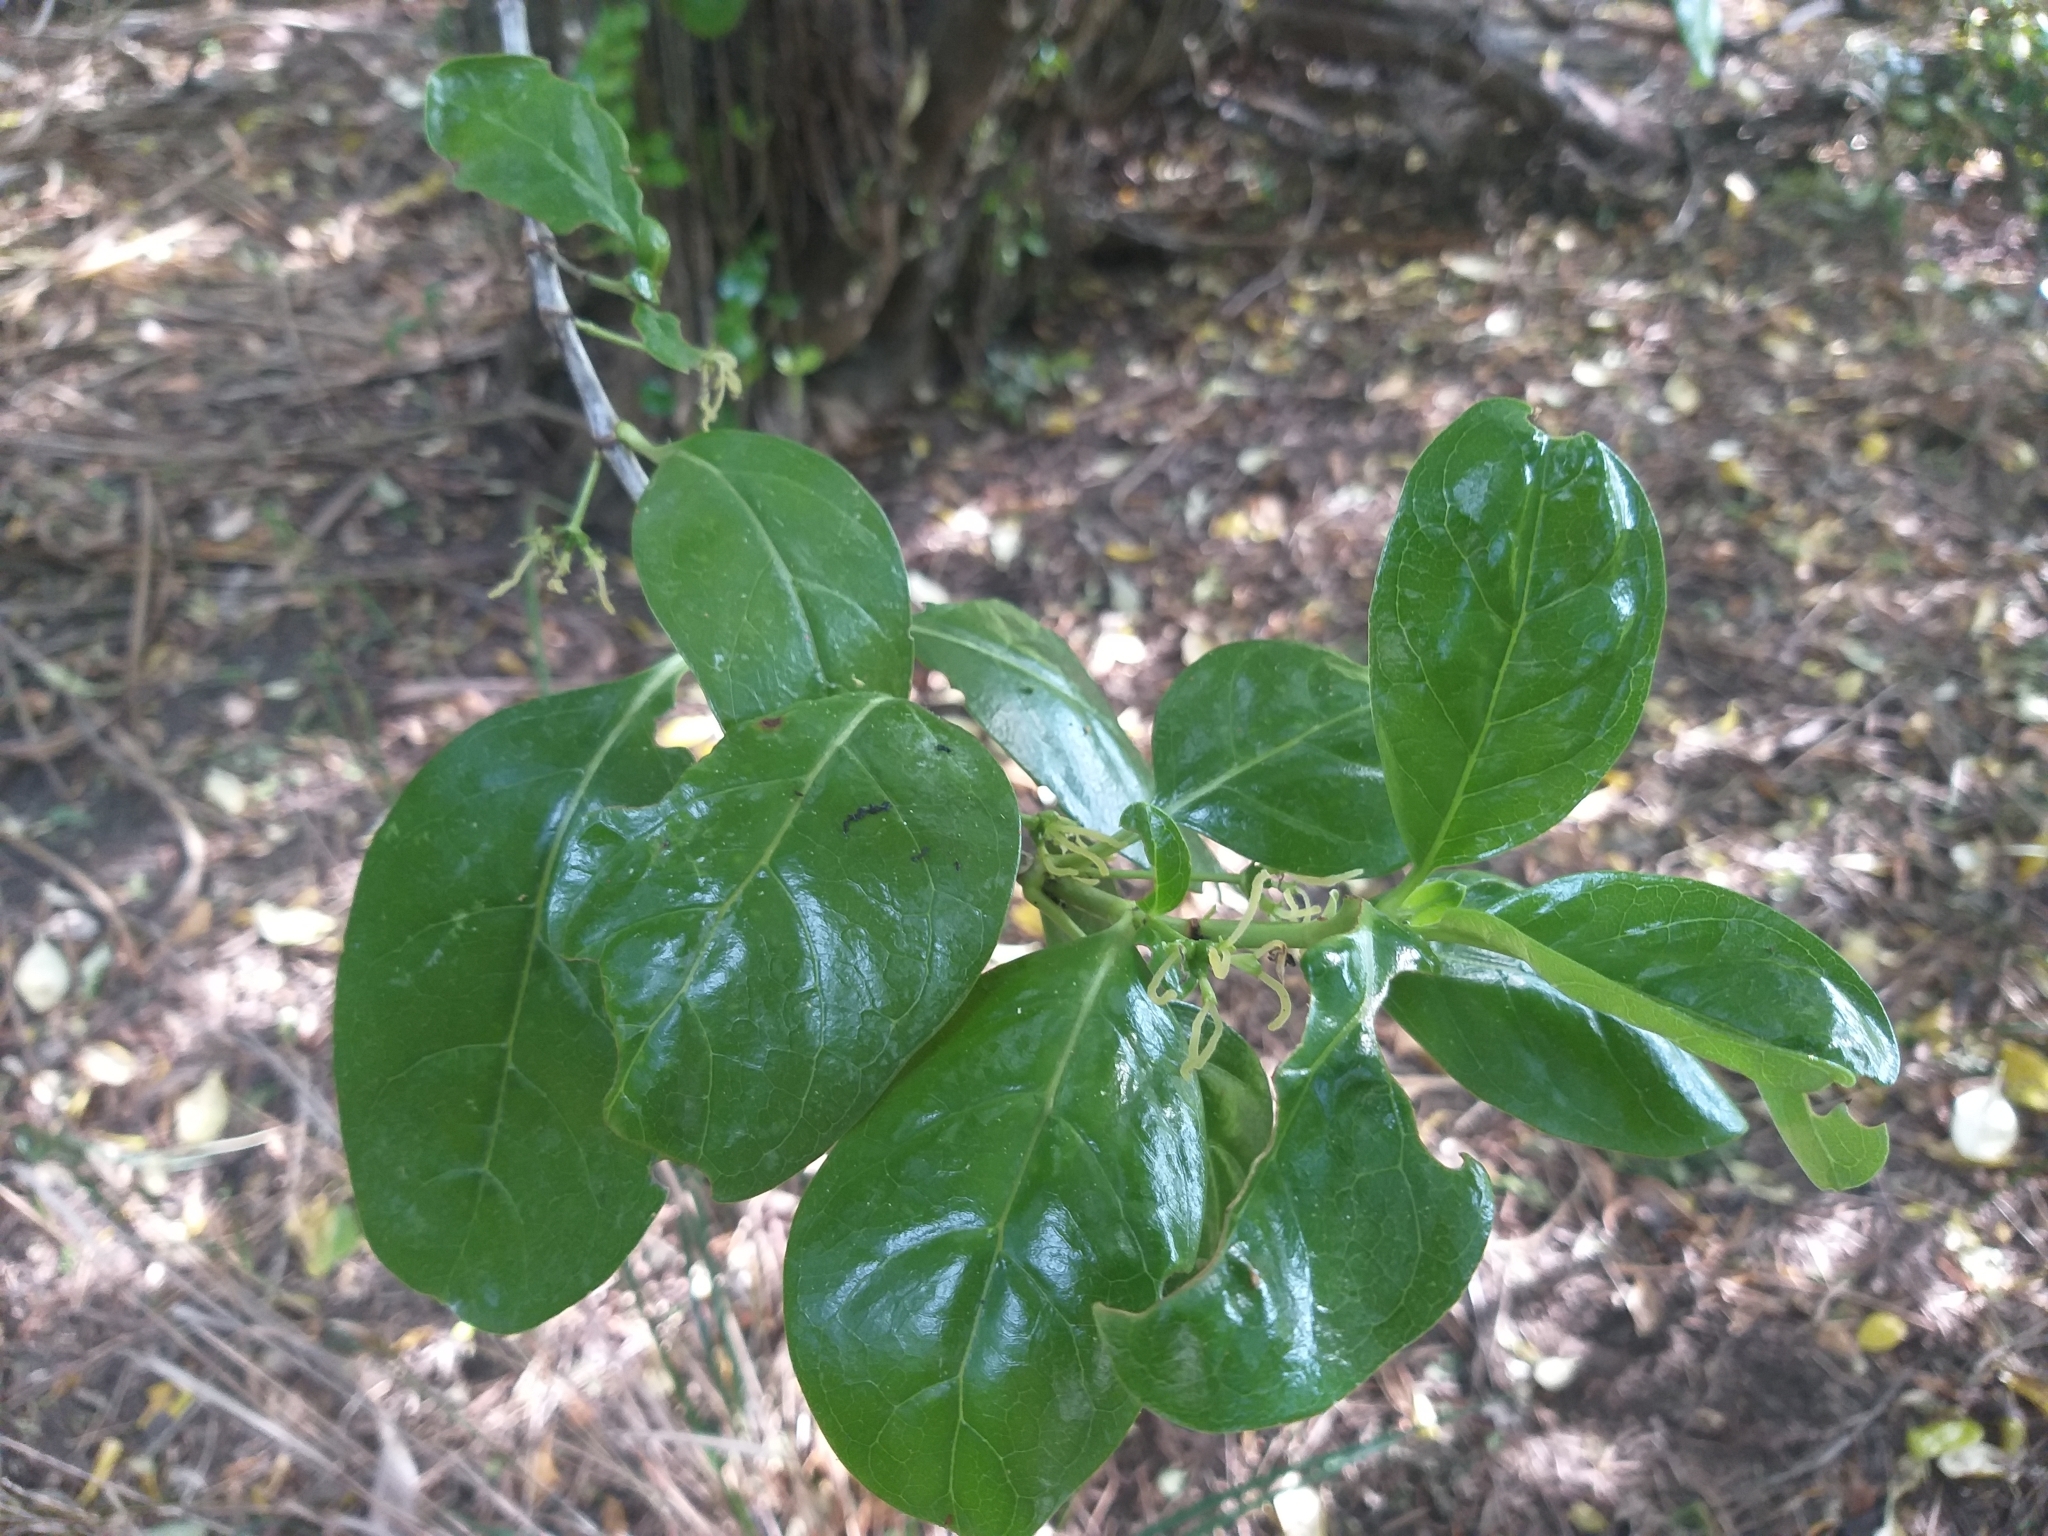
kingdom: Plantae
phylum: Tracheophyta
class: Magnoliopsida
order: Gentianales
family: Rubiaceae
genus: Coprosma
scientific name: Coprosma repens
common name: Tree bedstraw
